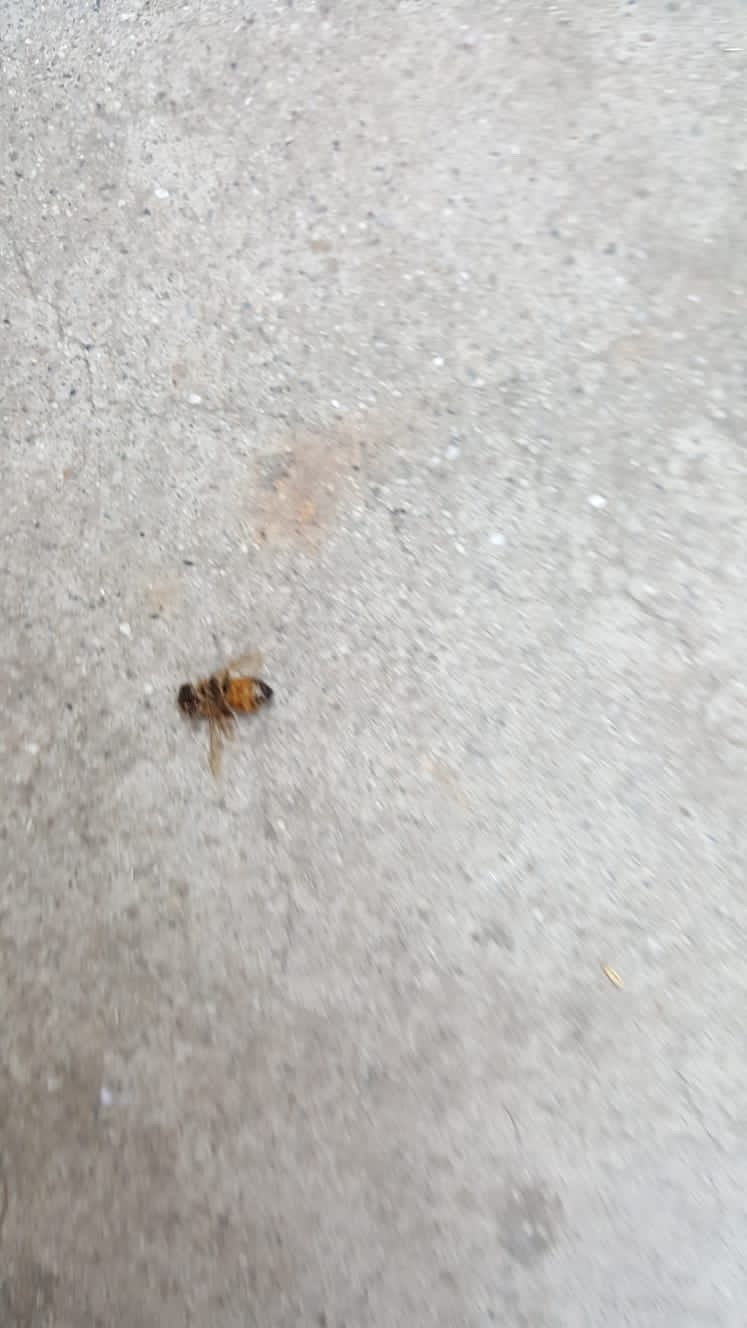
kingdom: Animalia
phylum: Arthropoda
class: Insecta
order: Hymenoptera
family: Apidae
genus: Apis
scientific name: Apis mellifera
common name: Honey bee
